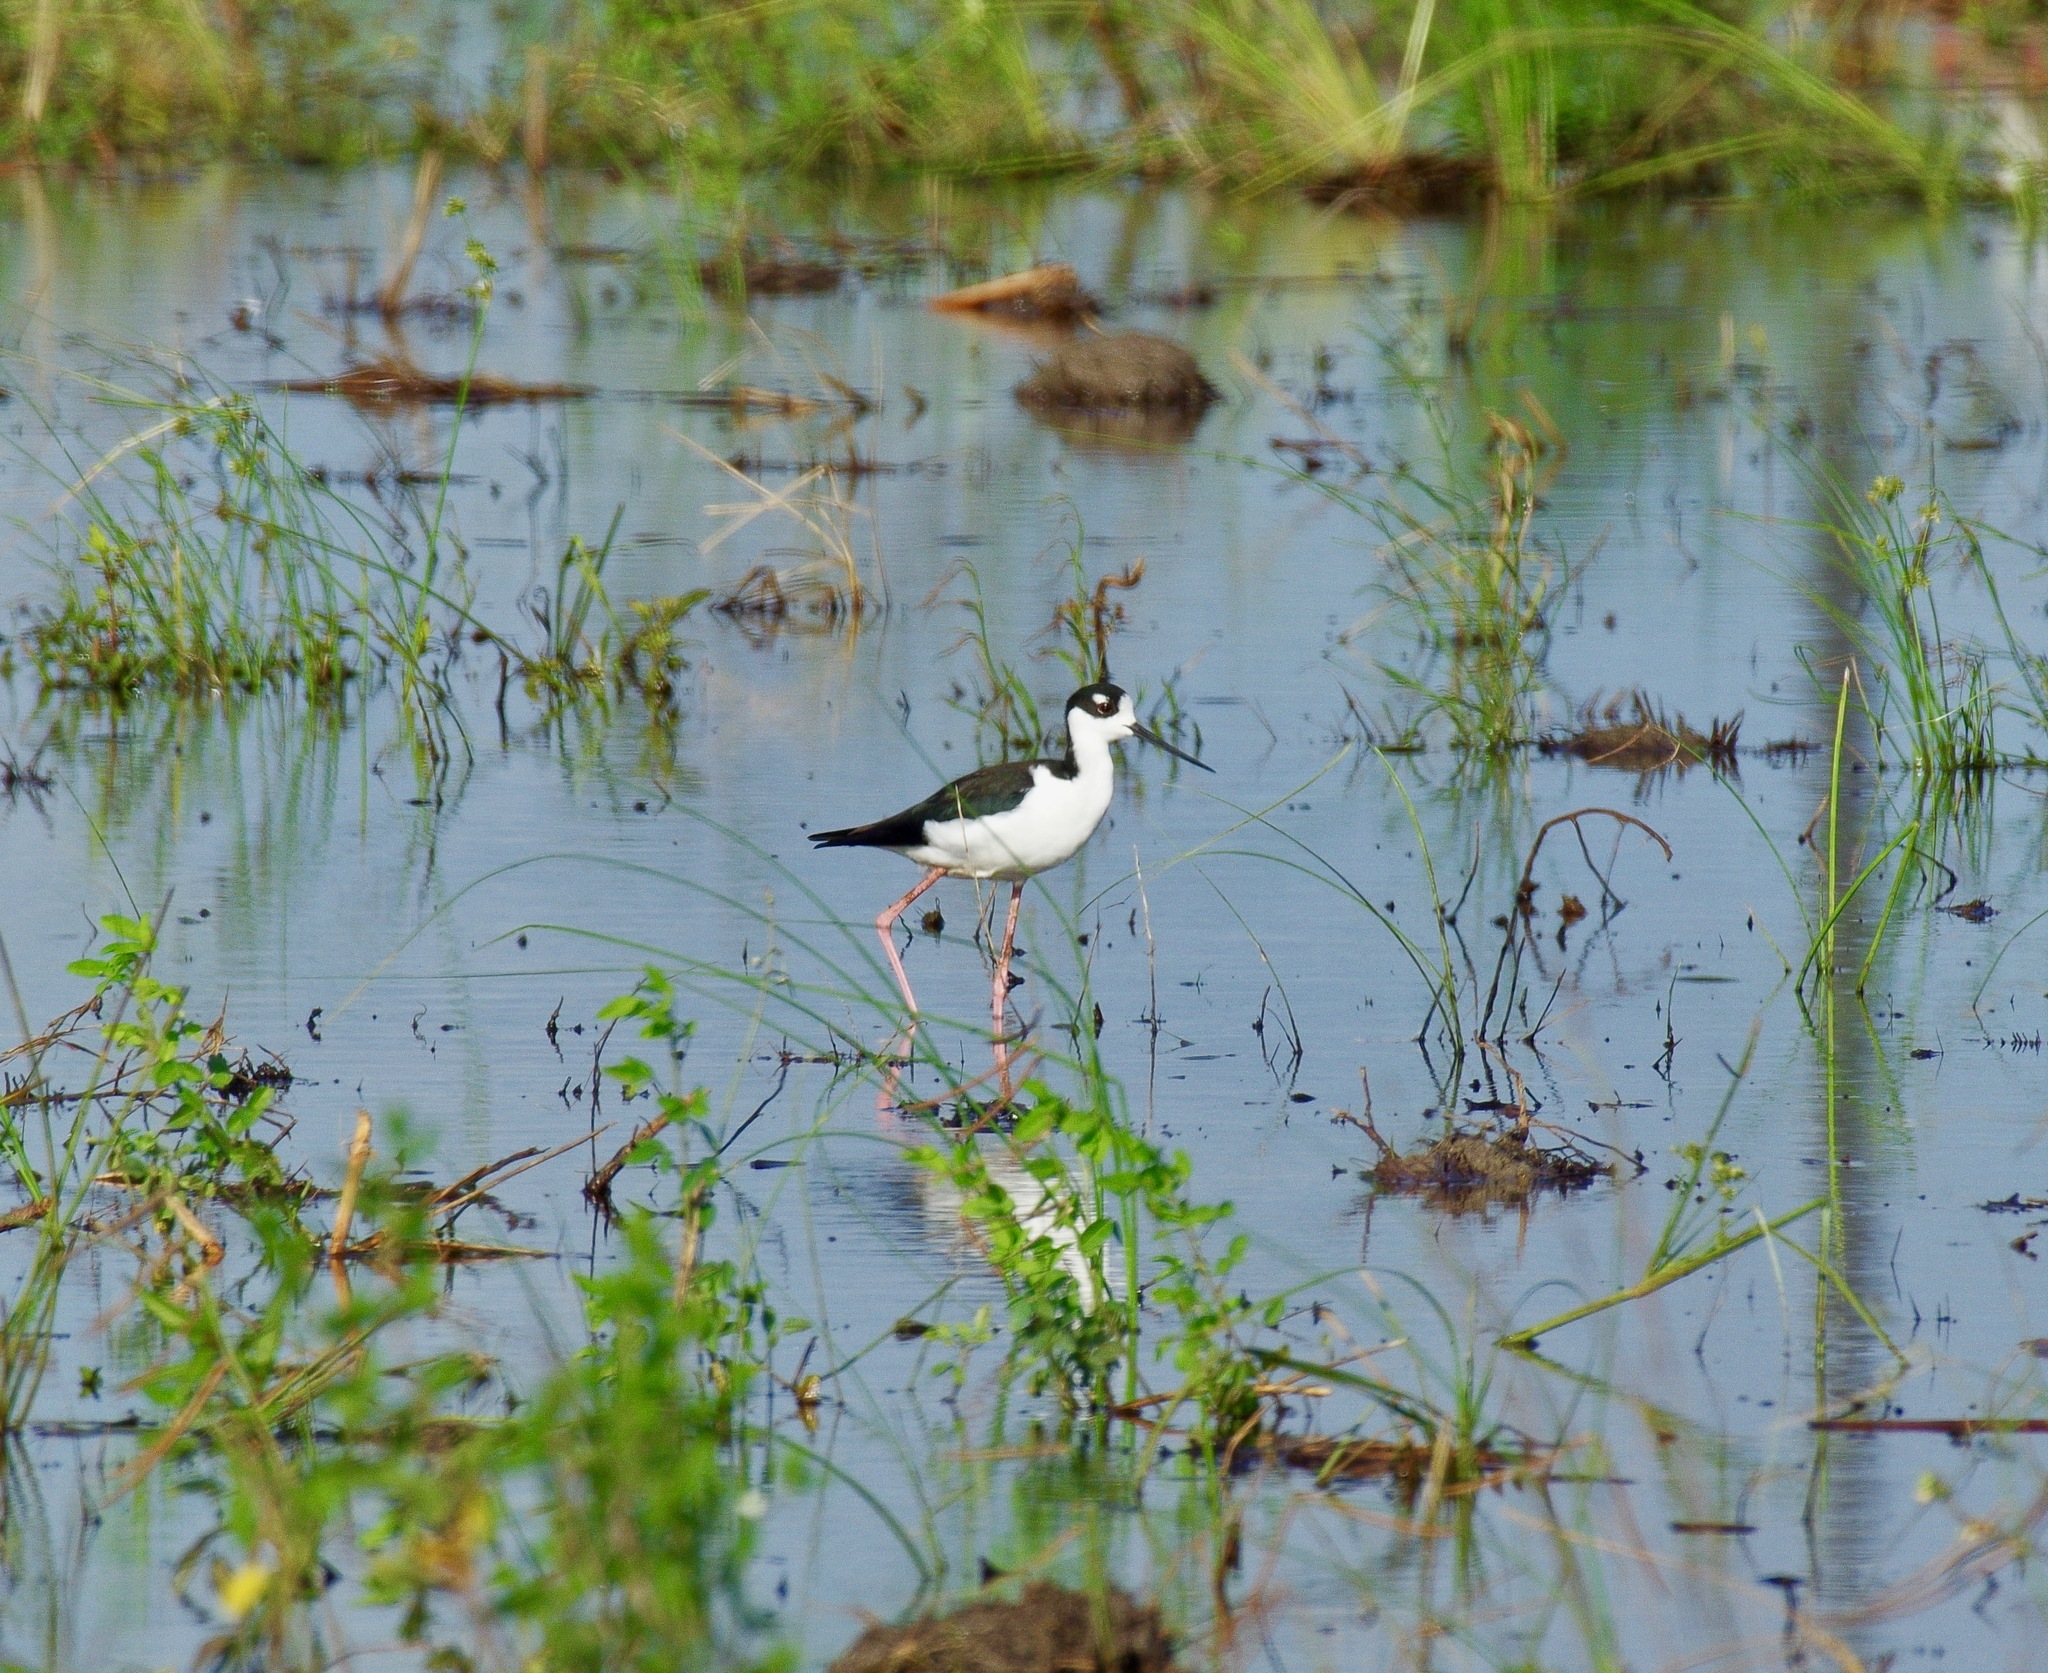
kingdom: Animalia
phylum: Chordata
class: Aves
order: Charadriiformes
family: Recurvirostridae
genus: Himantopus
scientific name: Himantopus mexicanus
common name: Black-necked stilt
